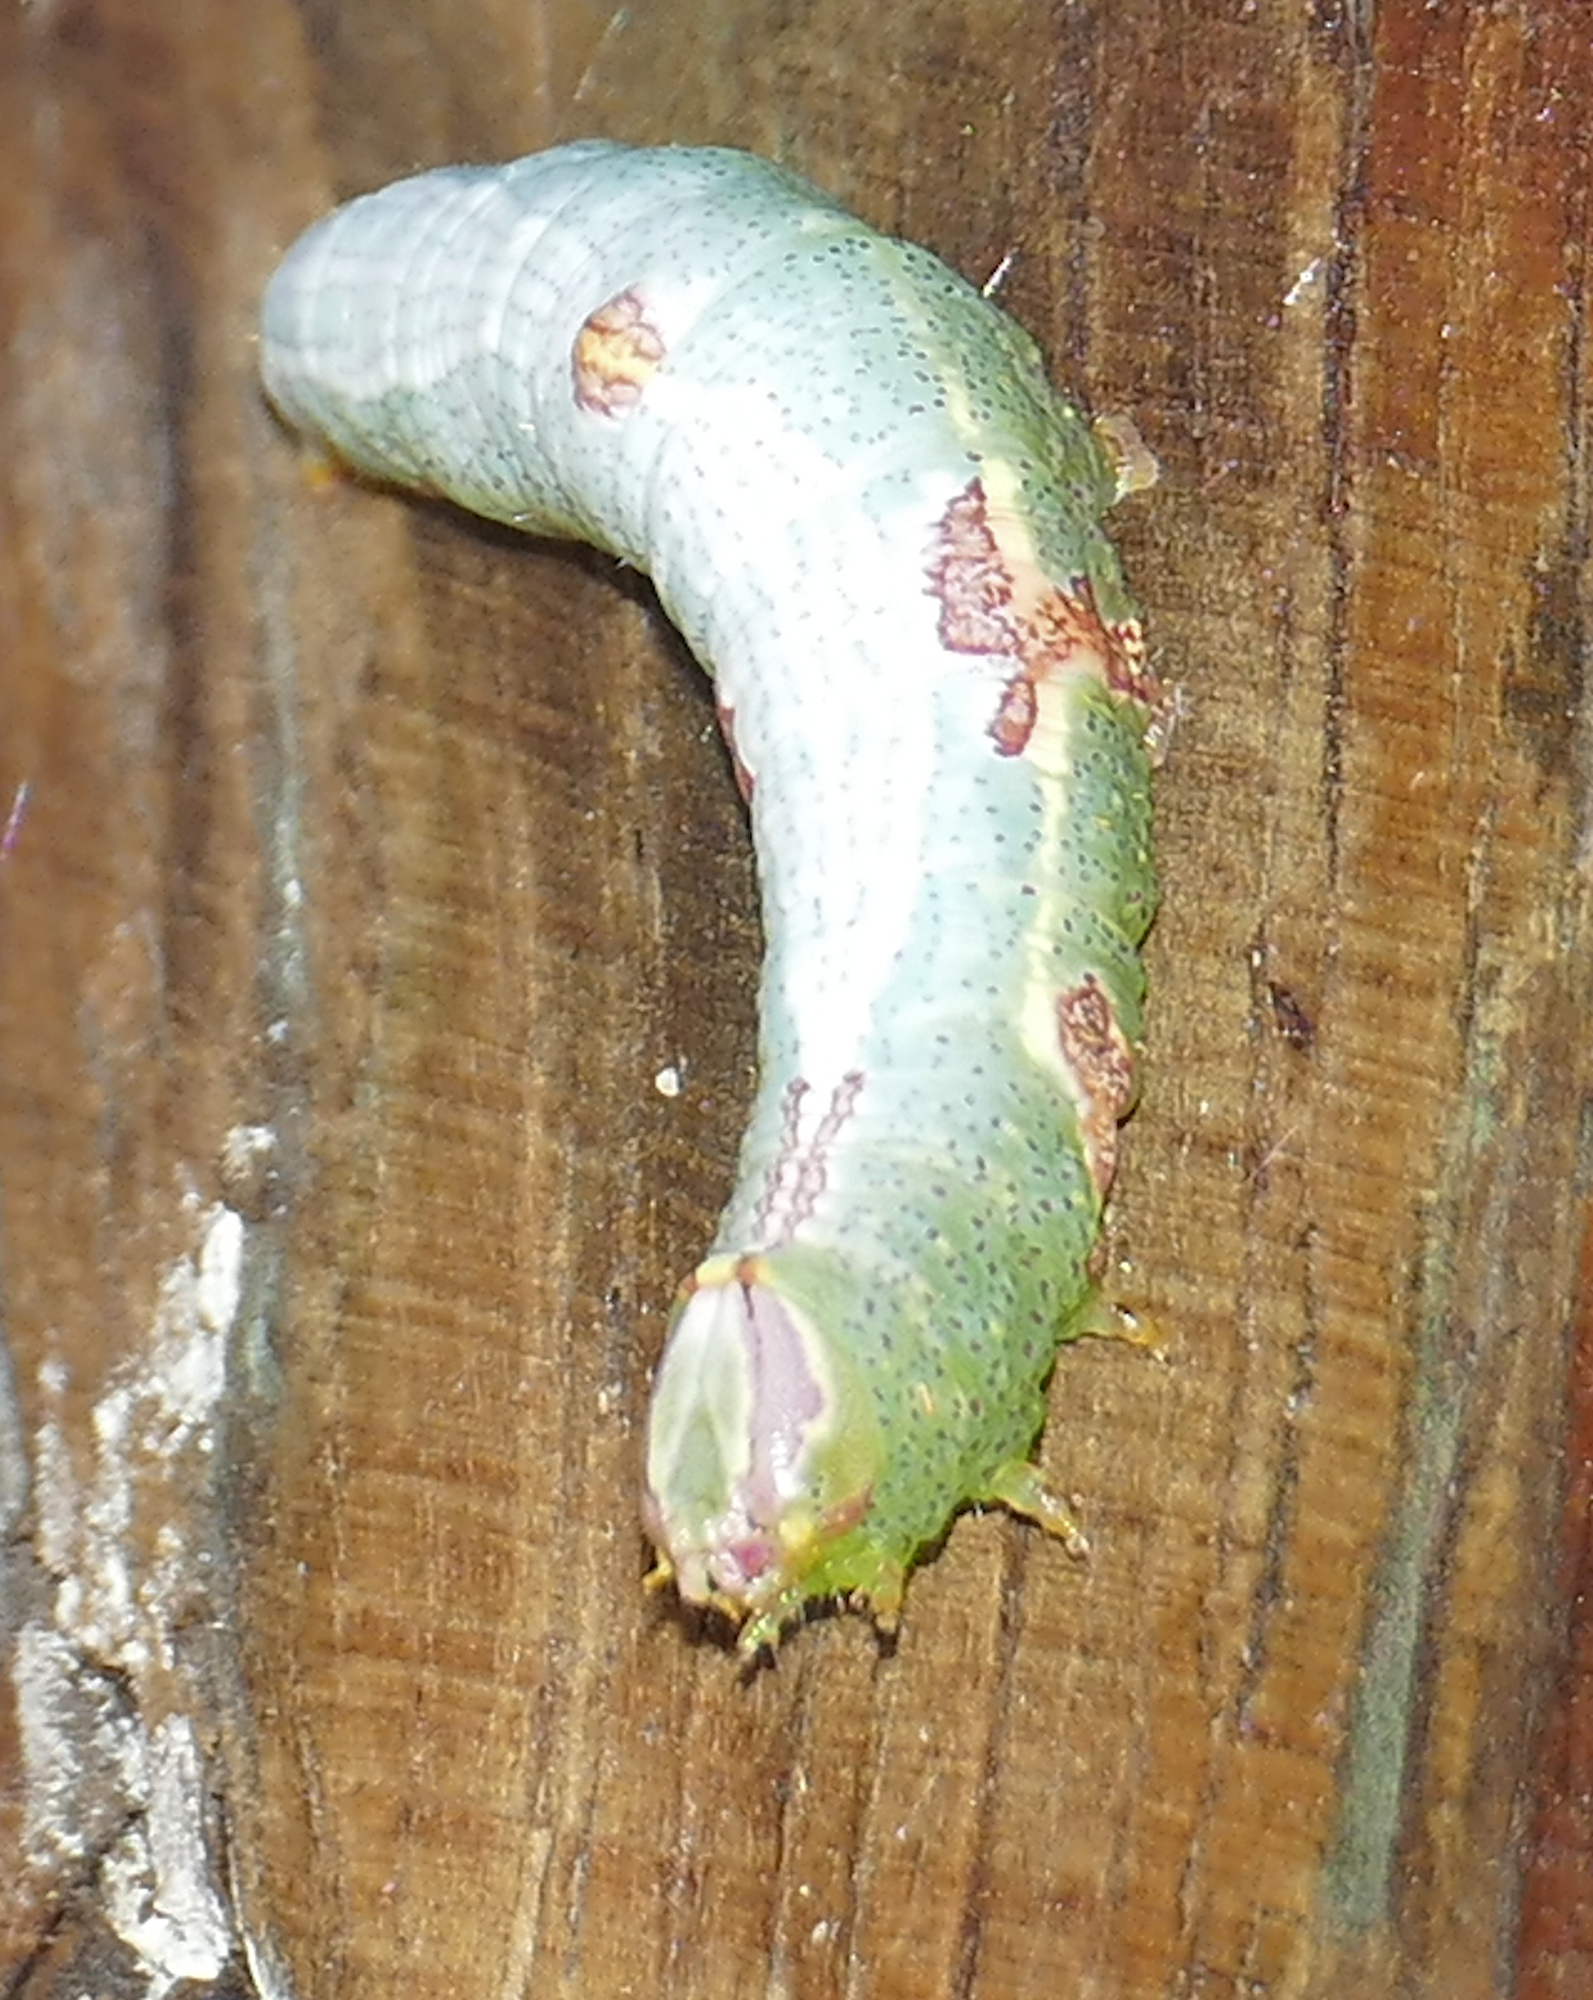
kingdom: Animalia
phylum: Arthropoda
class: Insecta
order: Lepidoptera
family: Notodontidae
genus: Disphragis
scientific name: Disphragis
